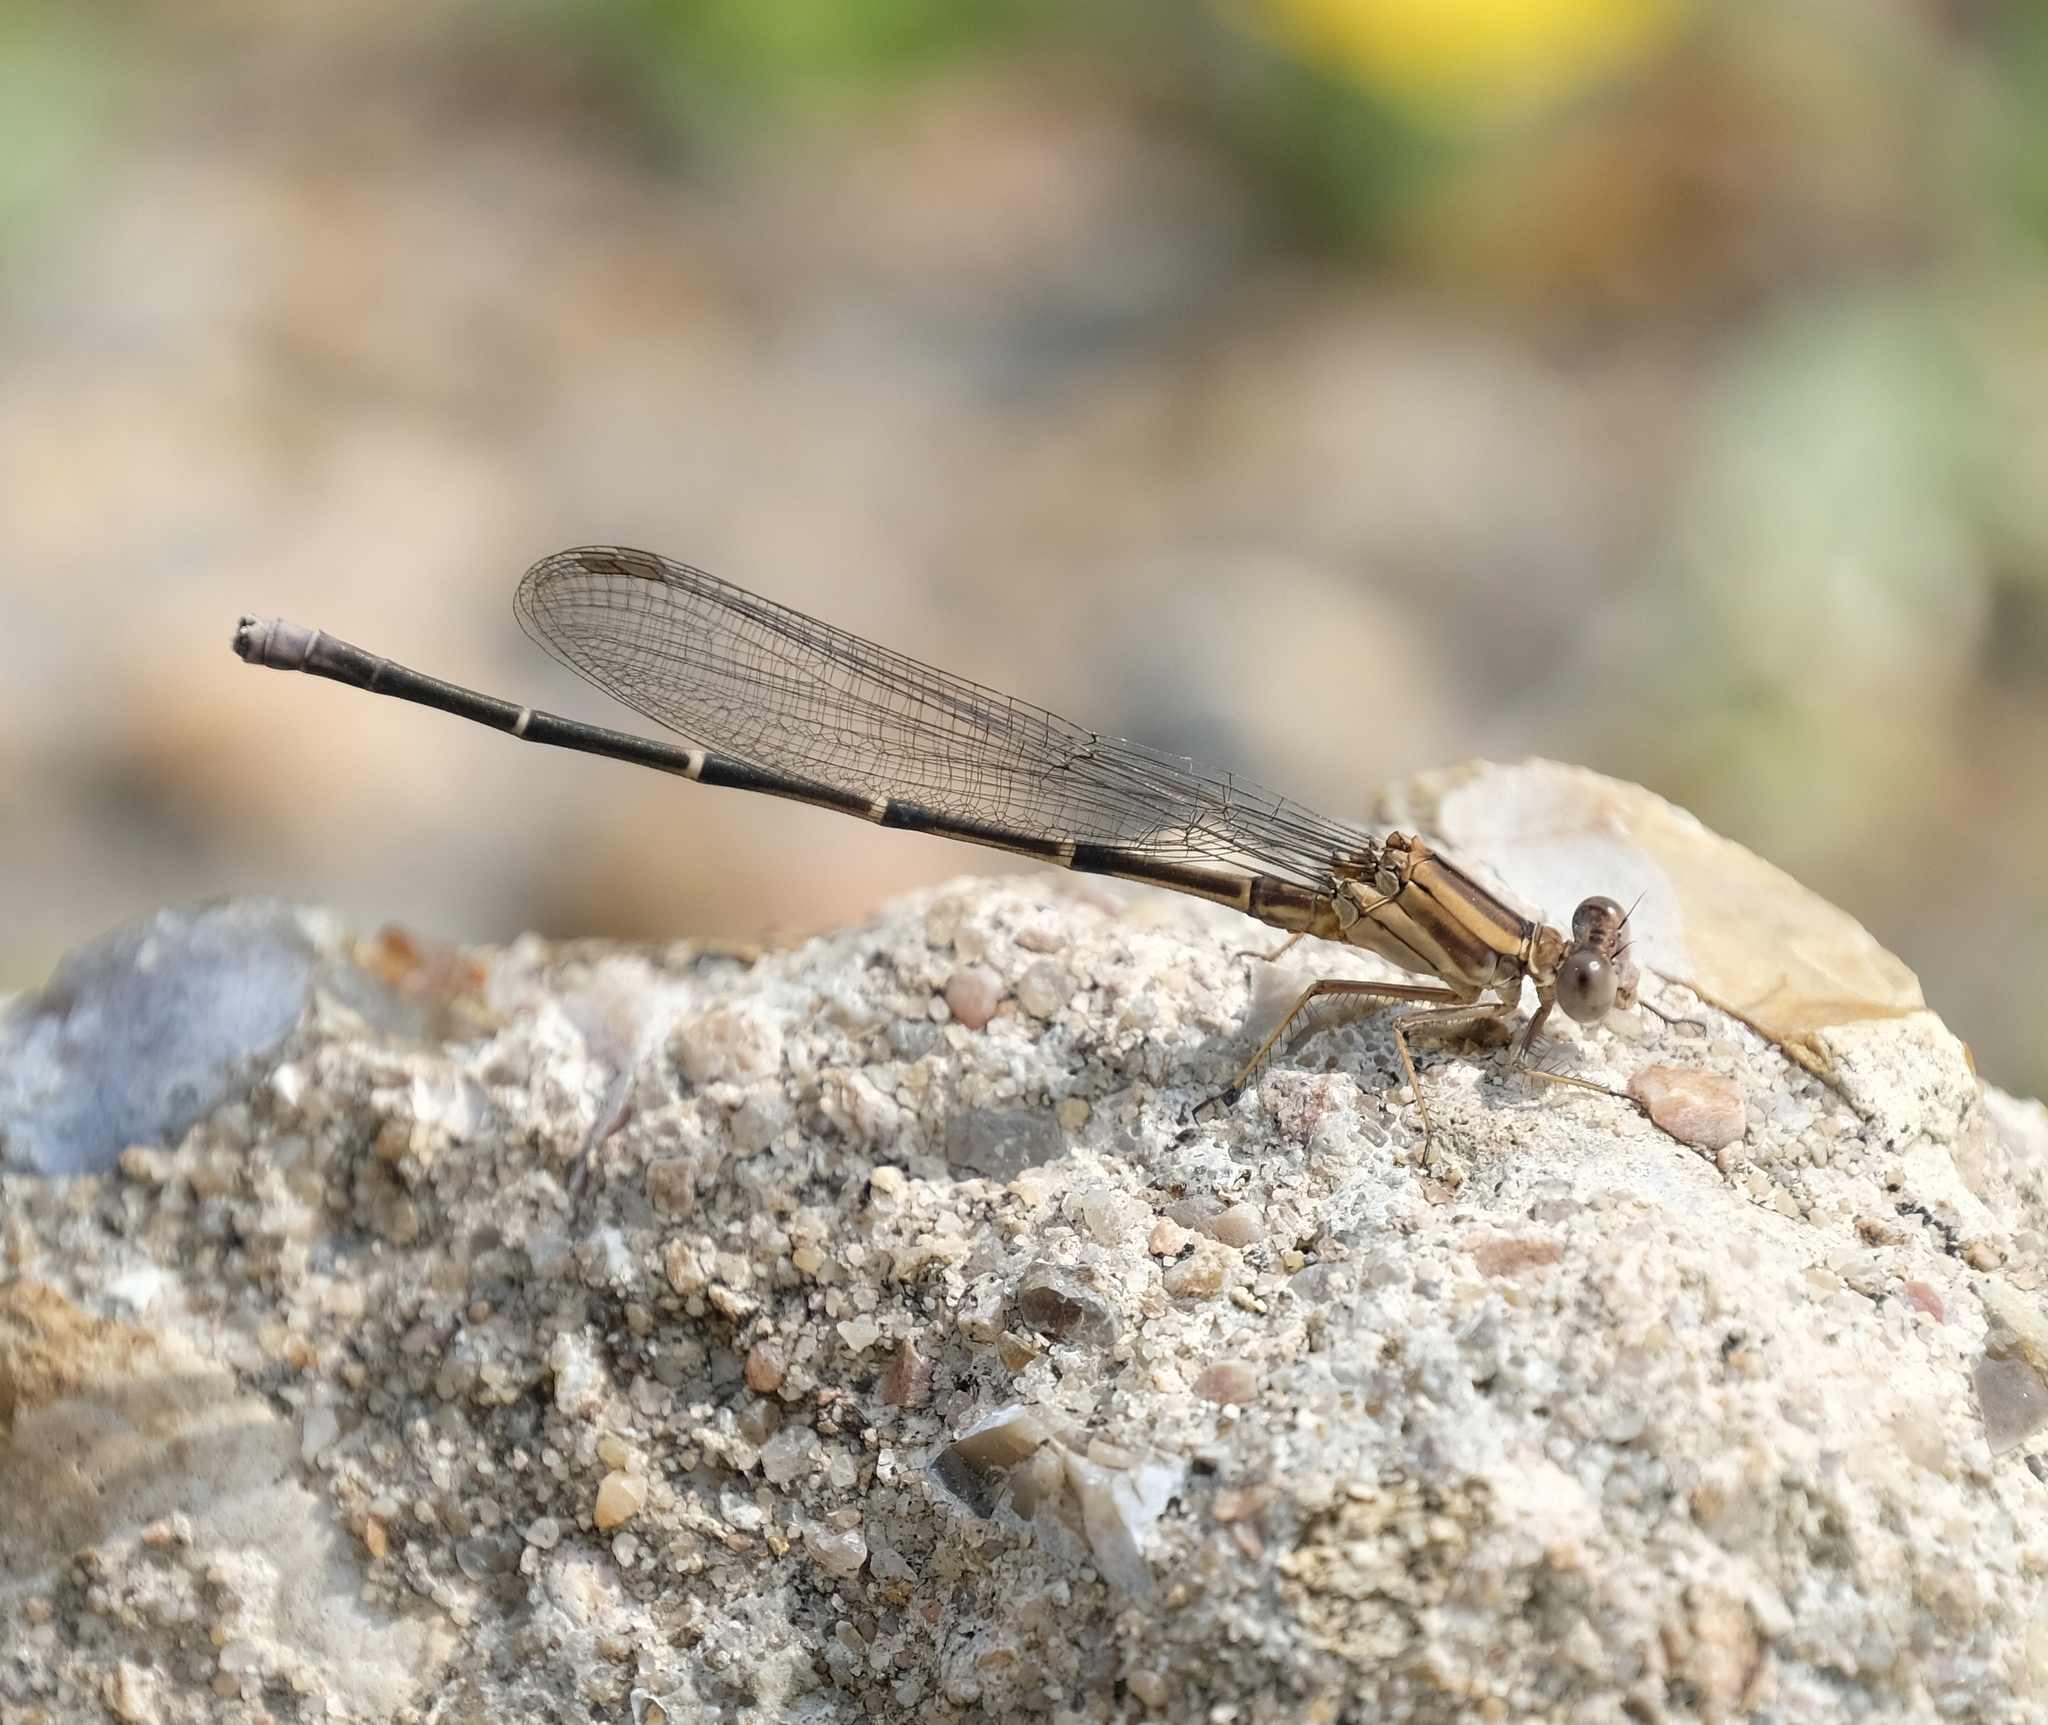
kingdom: Animalia
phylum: Arthropoda
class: Insecta
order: Odonata
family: Coenagrionidae
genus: Argia
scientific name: Argia moesta
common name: Powdered dancer
